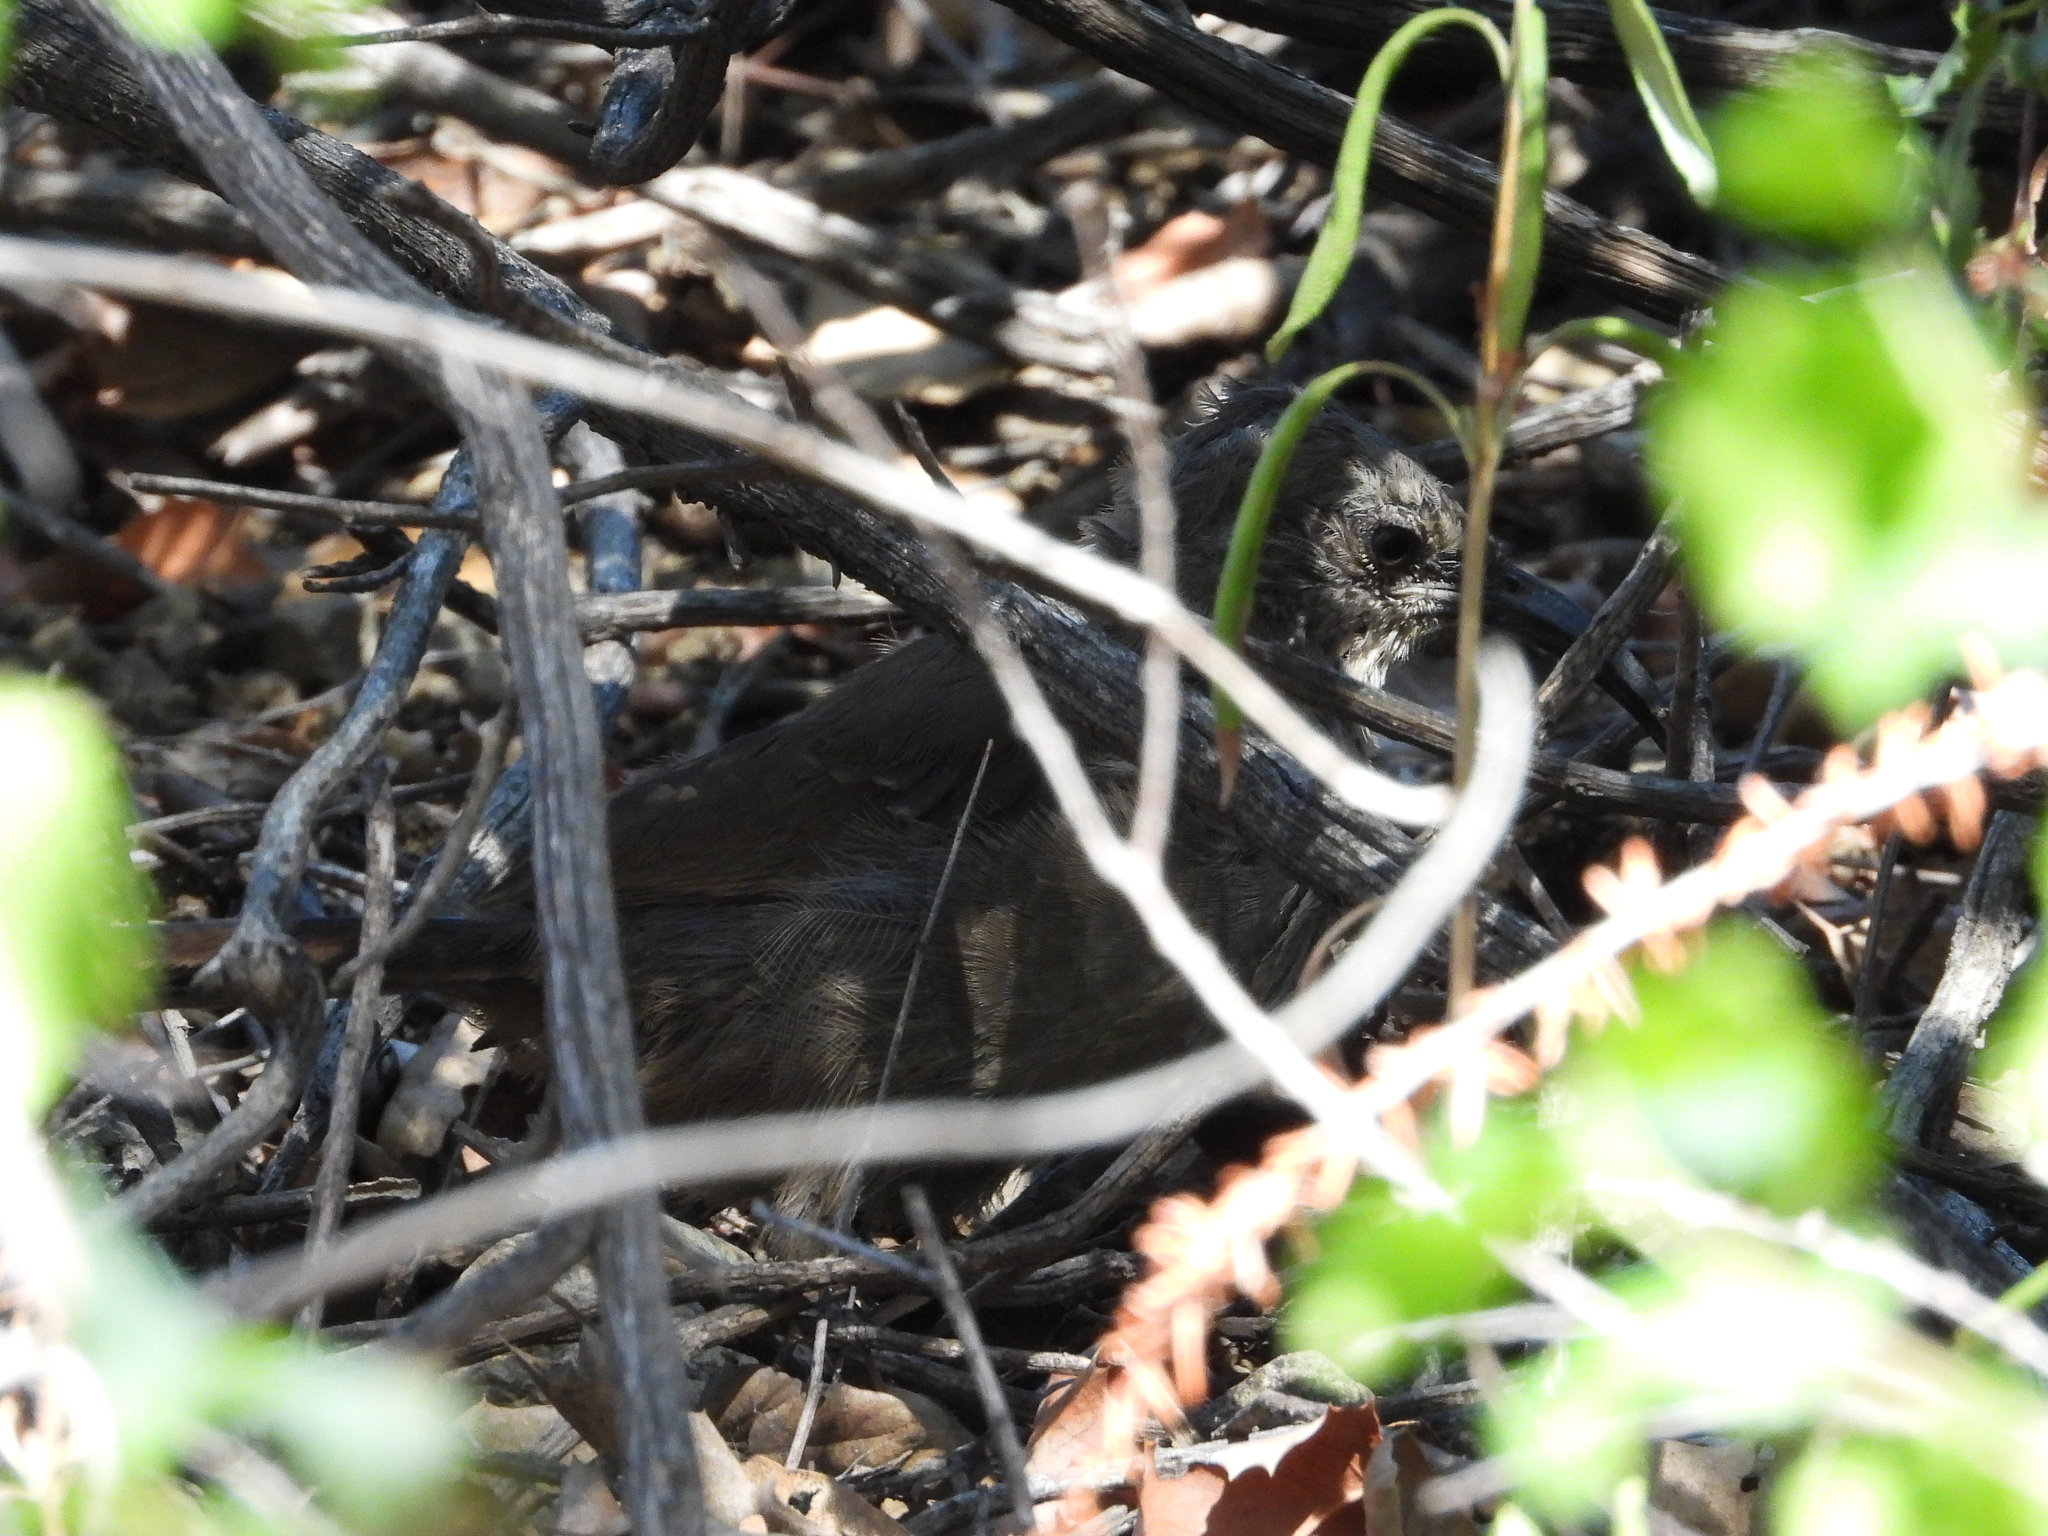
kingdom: Animalia
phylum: Chordata
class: Aves
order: Passeriformes
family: Mimidae
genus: Toxostoma
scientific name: Toxostoma redivivum
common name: California thrasher
